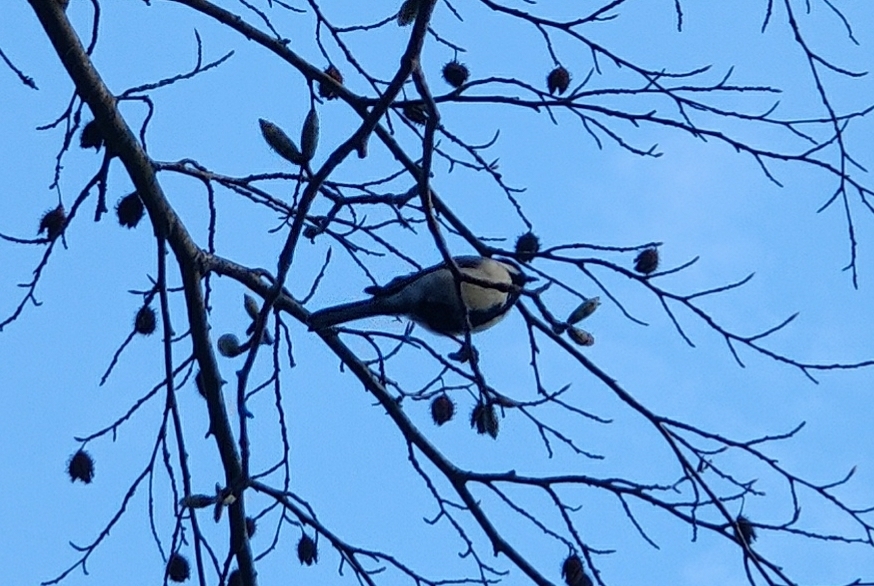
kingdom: Animalia
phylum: Chordata
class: Aves
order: Passeriformes
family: Paridae
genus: Parus
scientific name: Parus major
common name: Great tit
